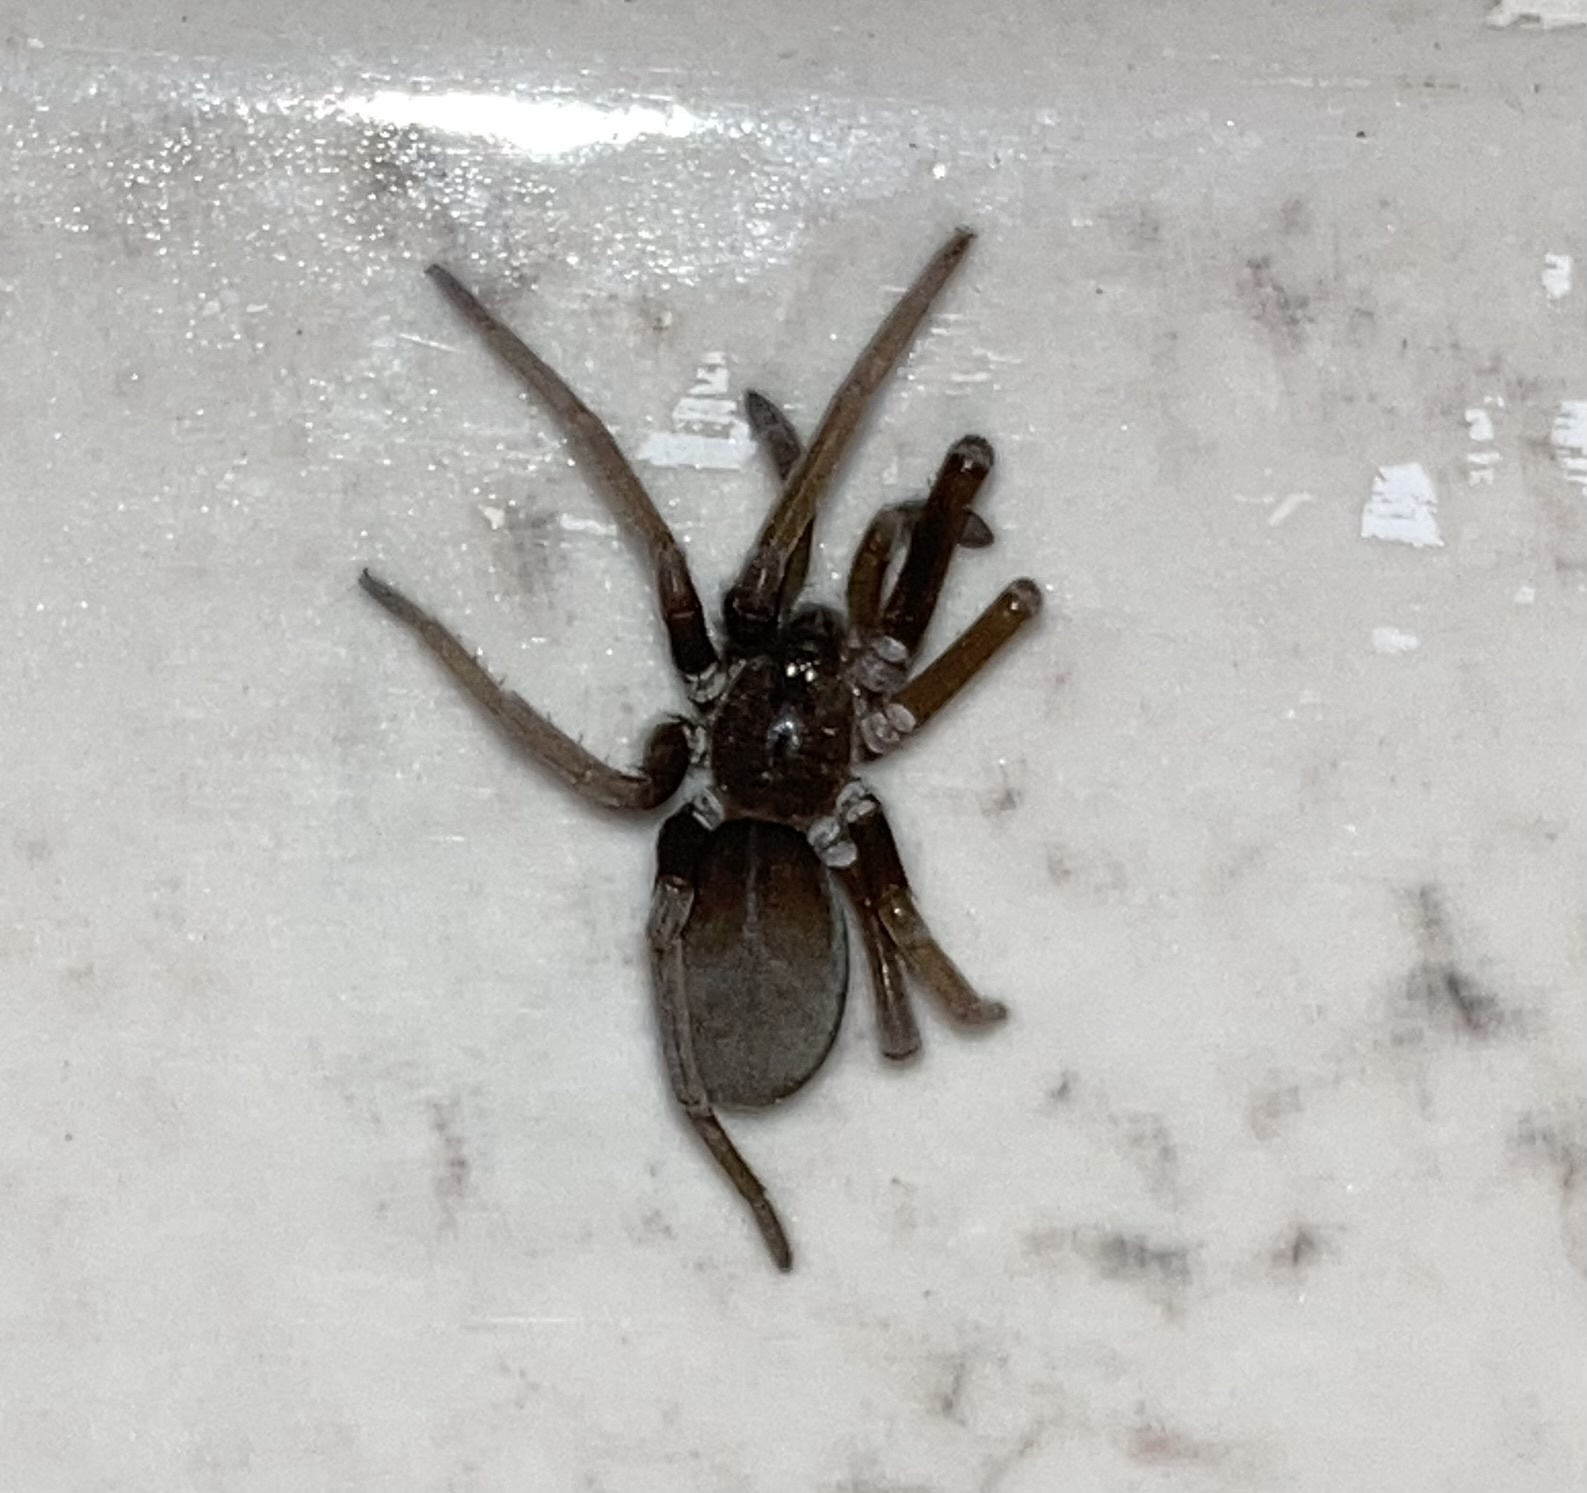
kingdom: Animalia
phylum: Arthropoda
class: Arachnida
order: Araneae
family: Filistatidae
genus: Kukulcania
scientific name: Kukulcania hibernalis
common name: Crevice weaver
